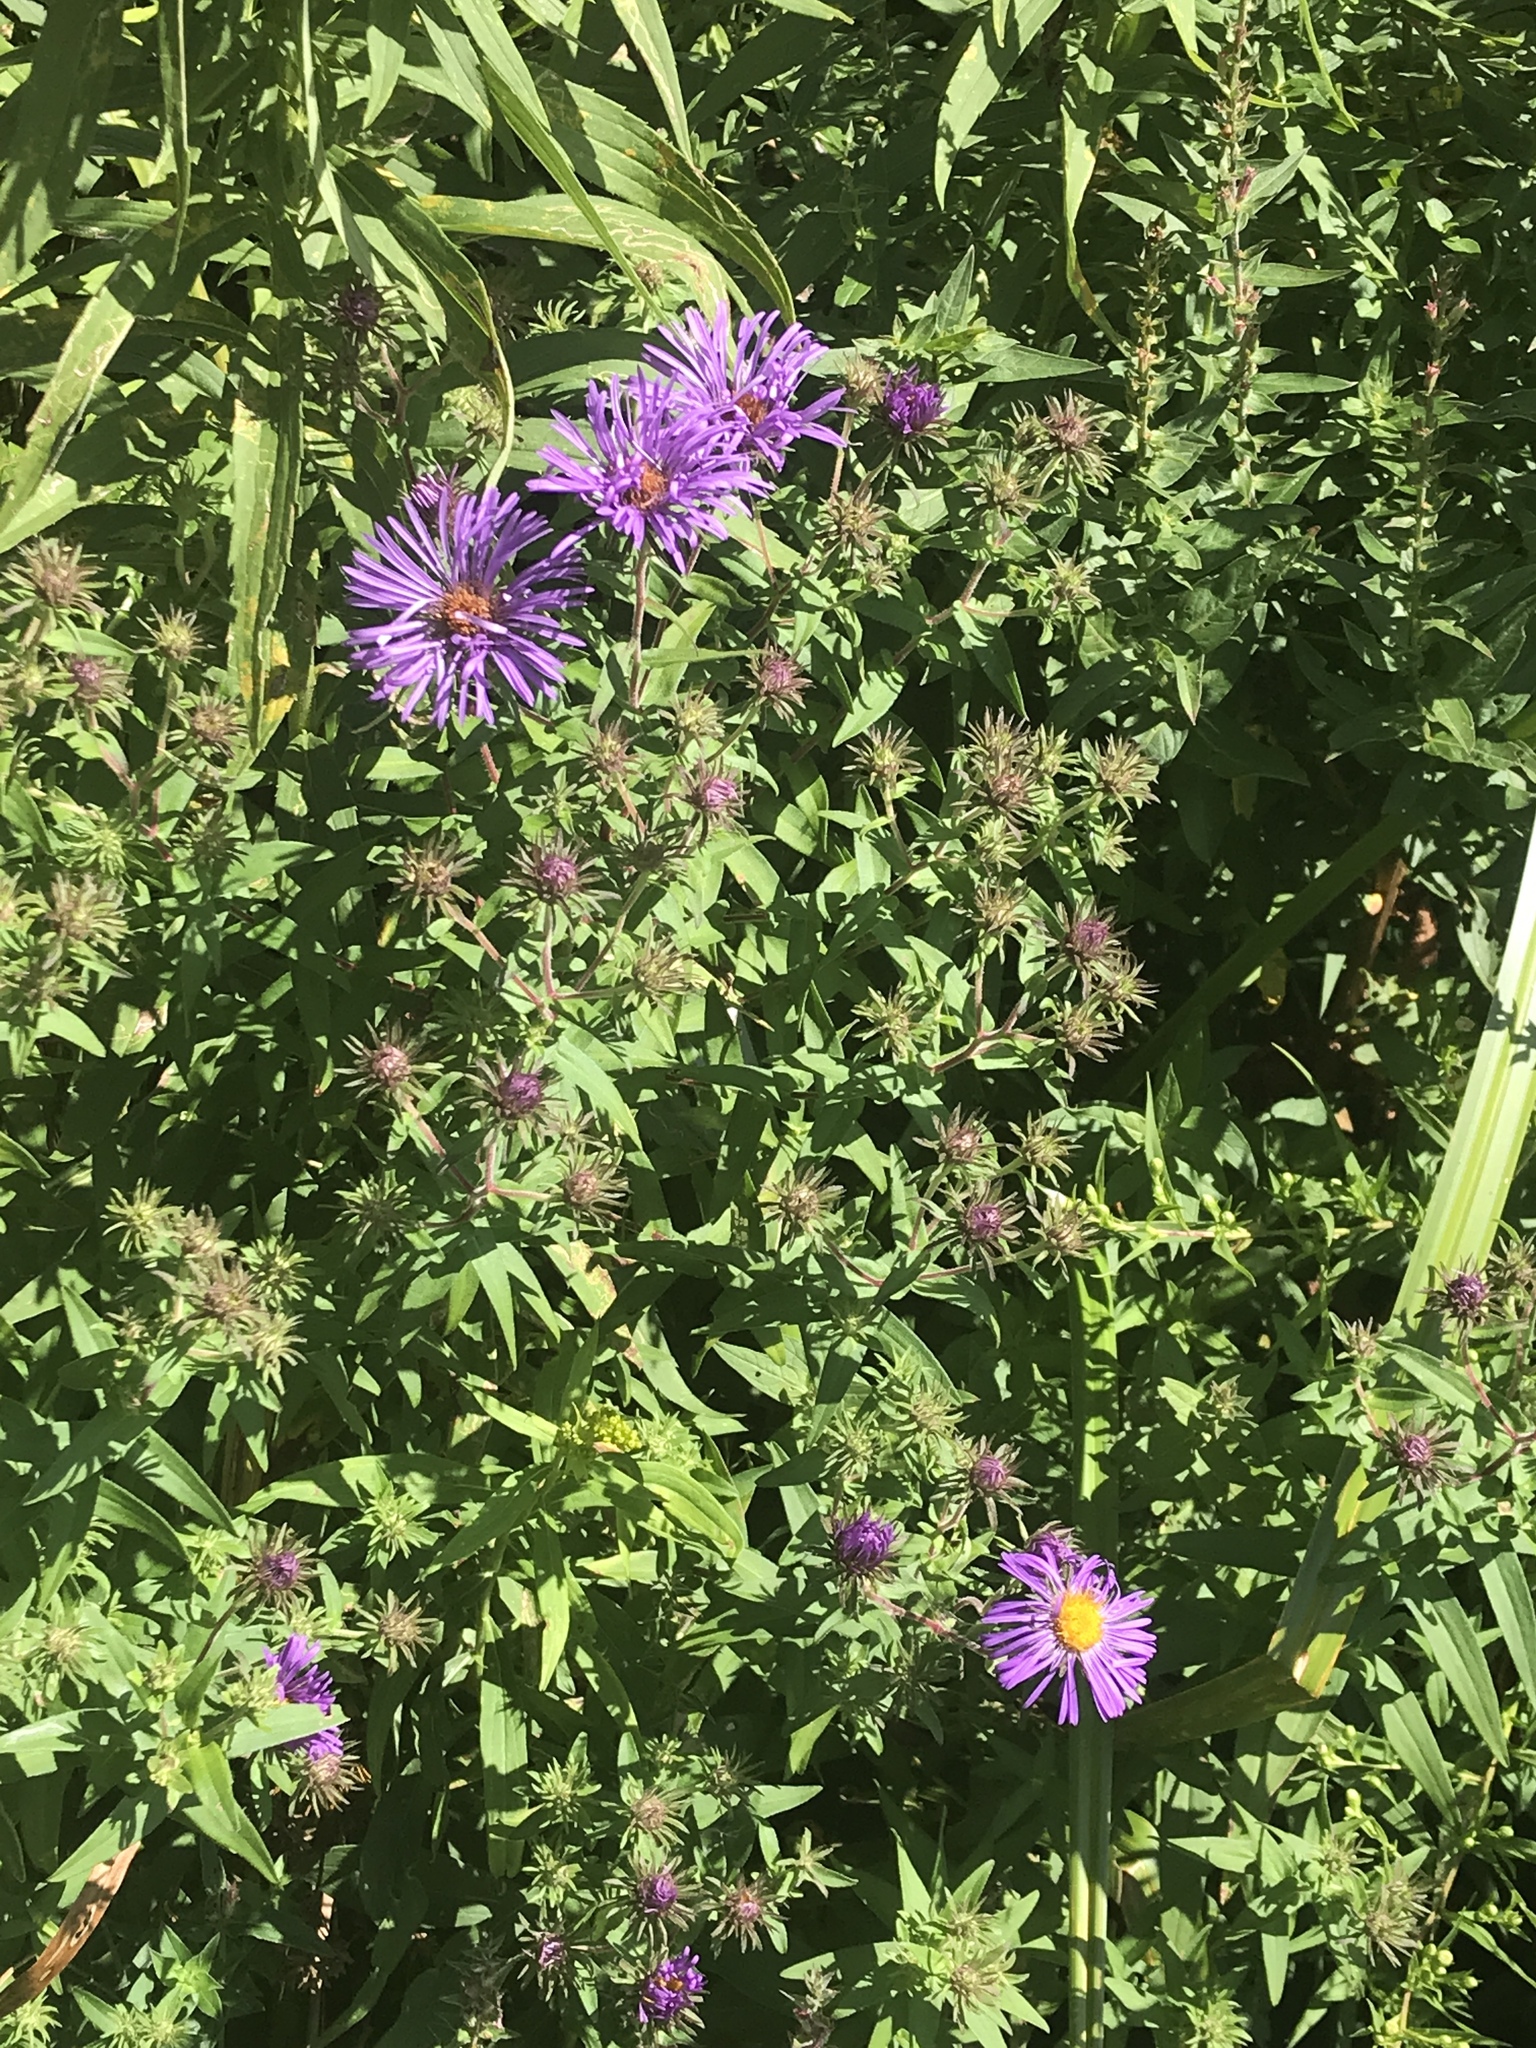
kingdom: Plantae
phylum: Tracheophyta
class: Magnoliopsida
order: Asterales
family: Asteraceae
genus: Symphyotrichum
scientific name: Symphyotrichum novae-angliae
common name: Michaelmas daisy
